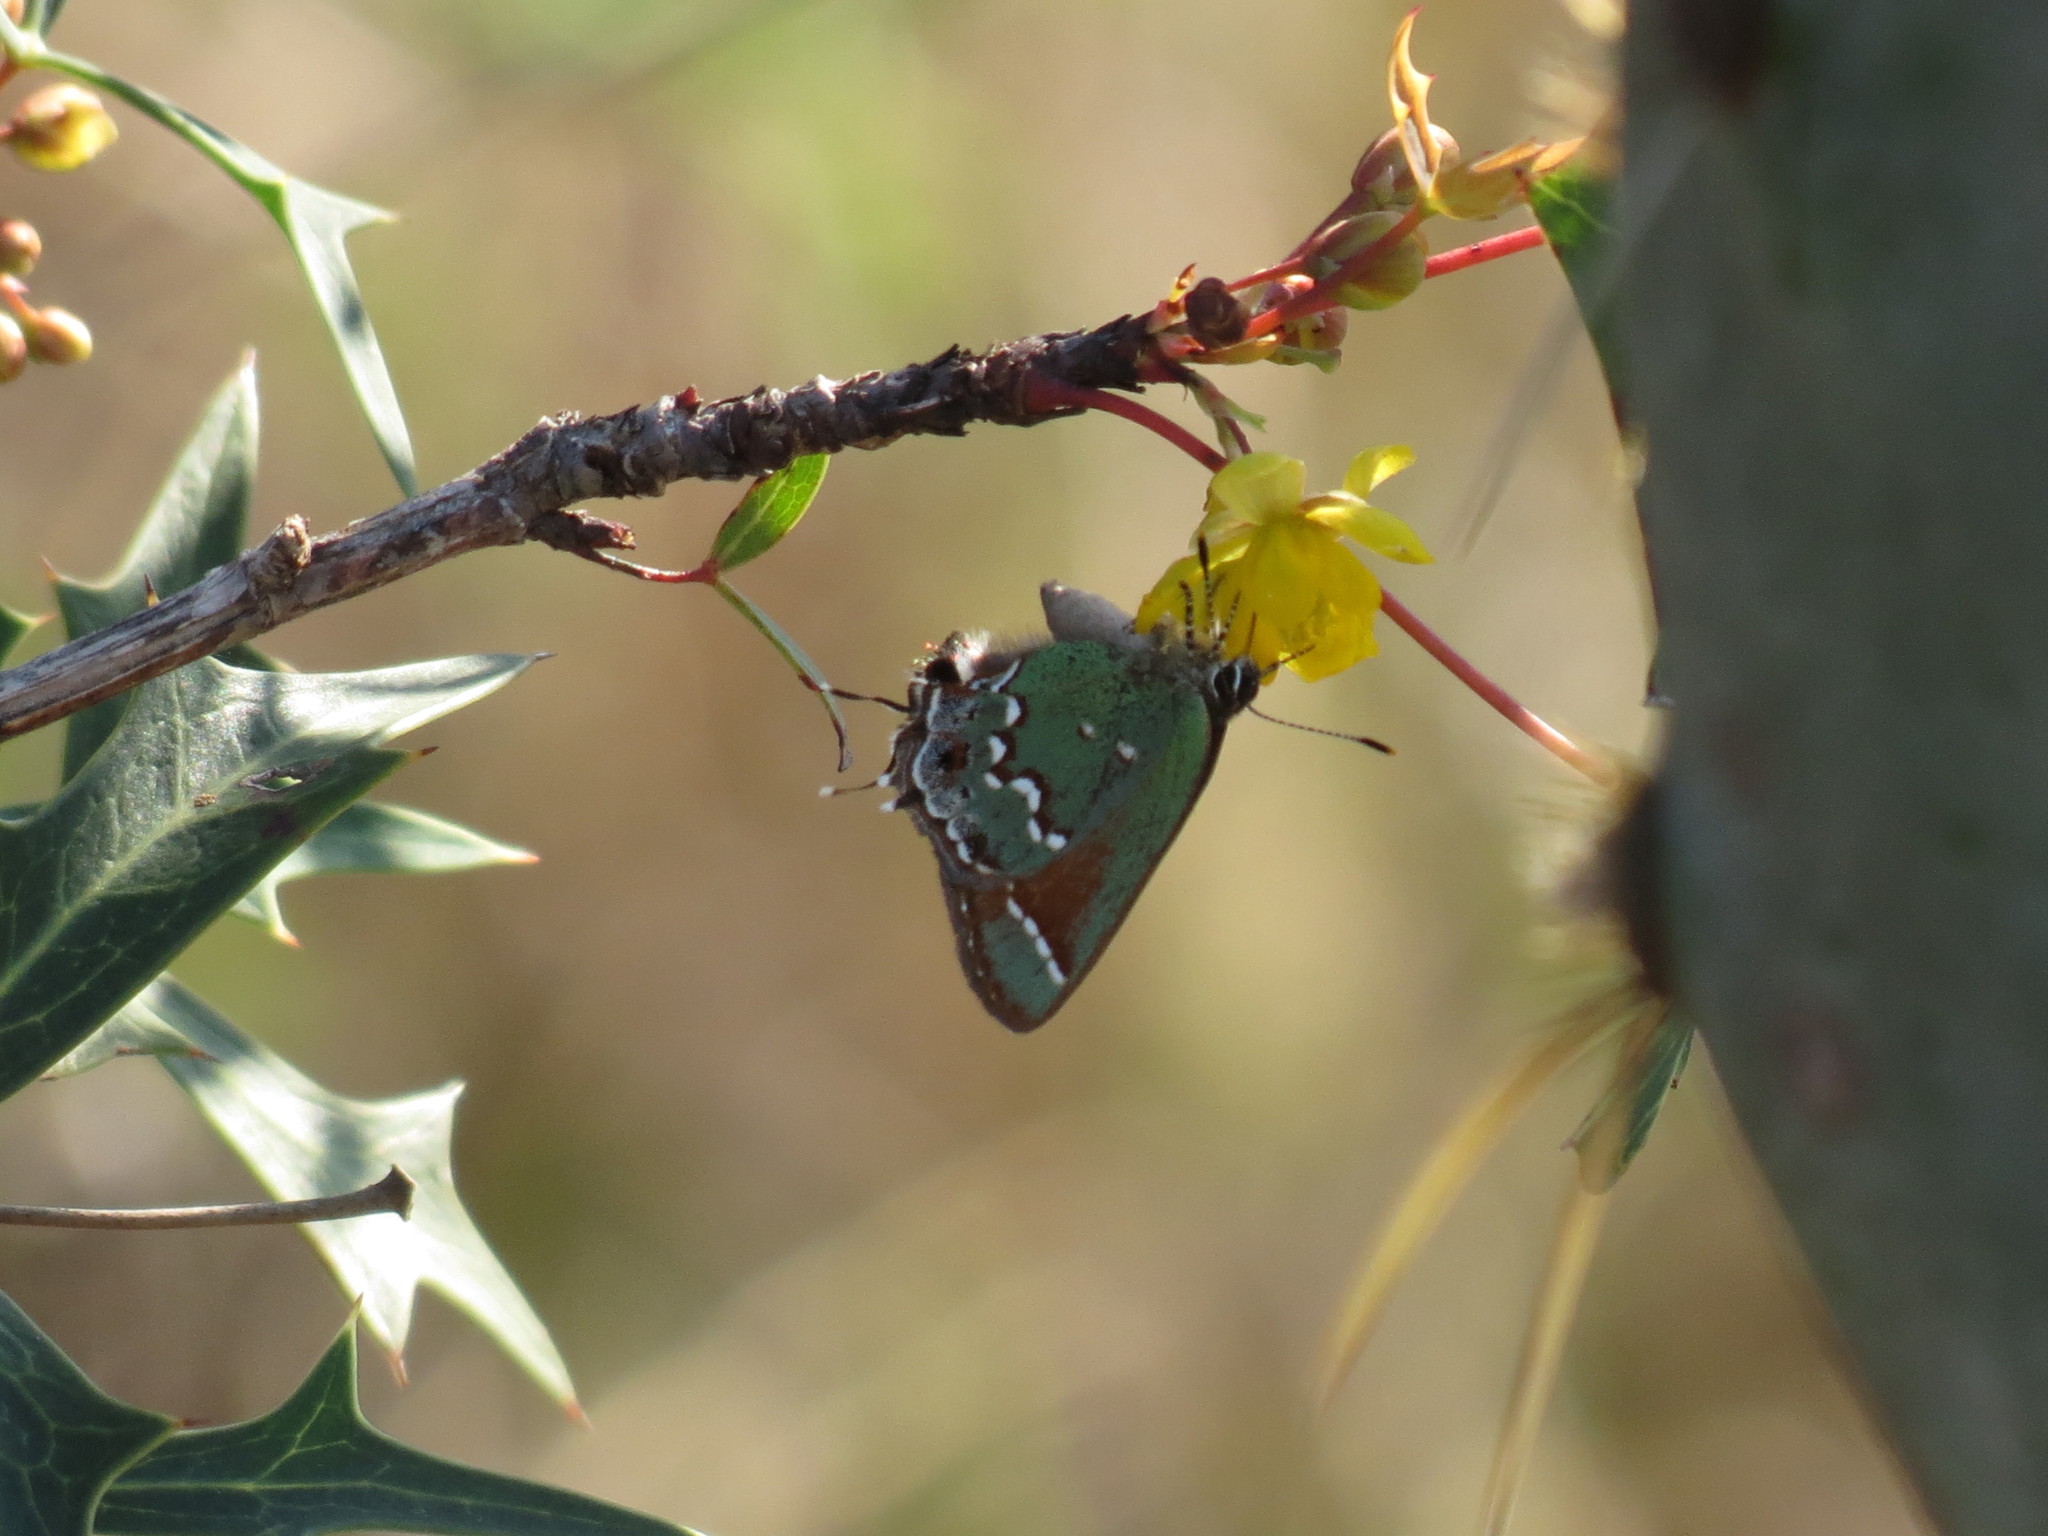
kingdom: Animalia
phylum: Arthropoda
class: Insecta
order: Lepidoptera
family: Lycaenidae
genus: Mitoura
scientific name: Mitoura gryneus
